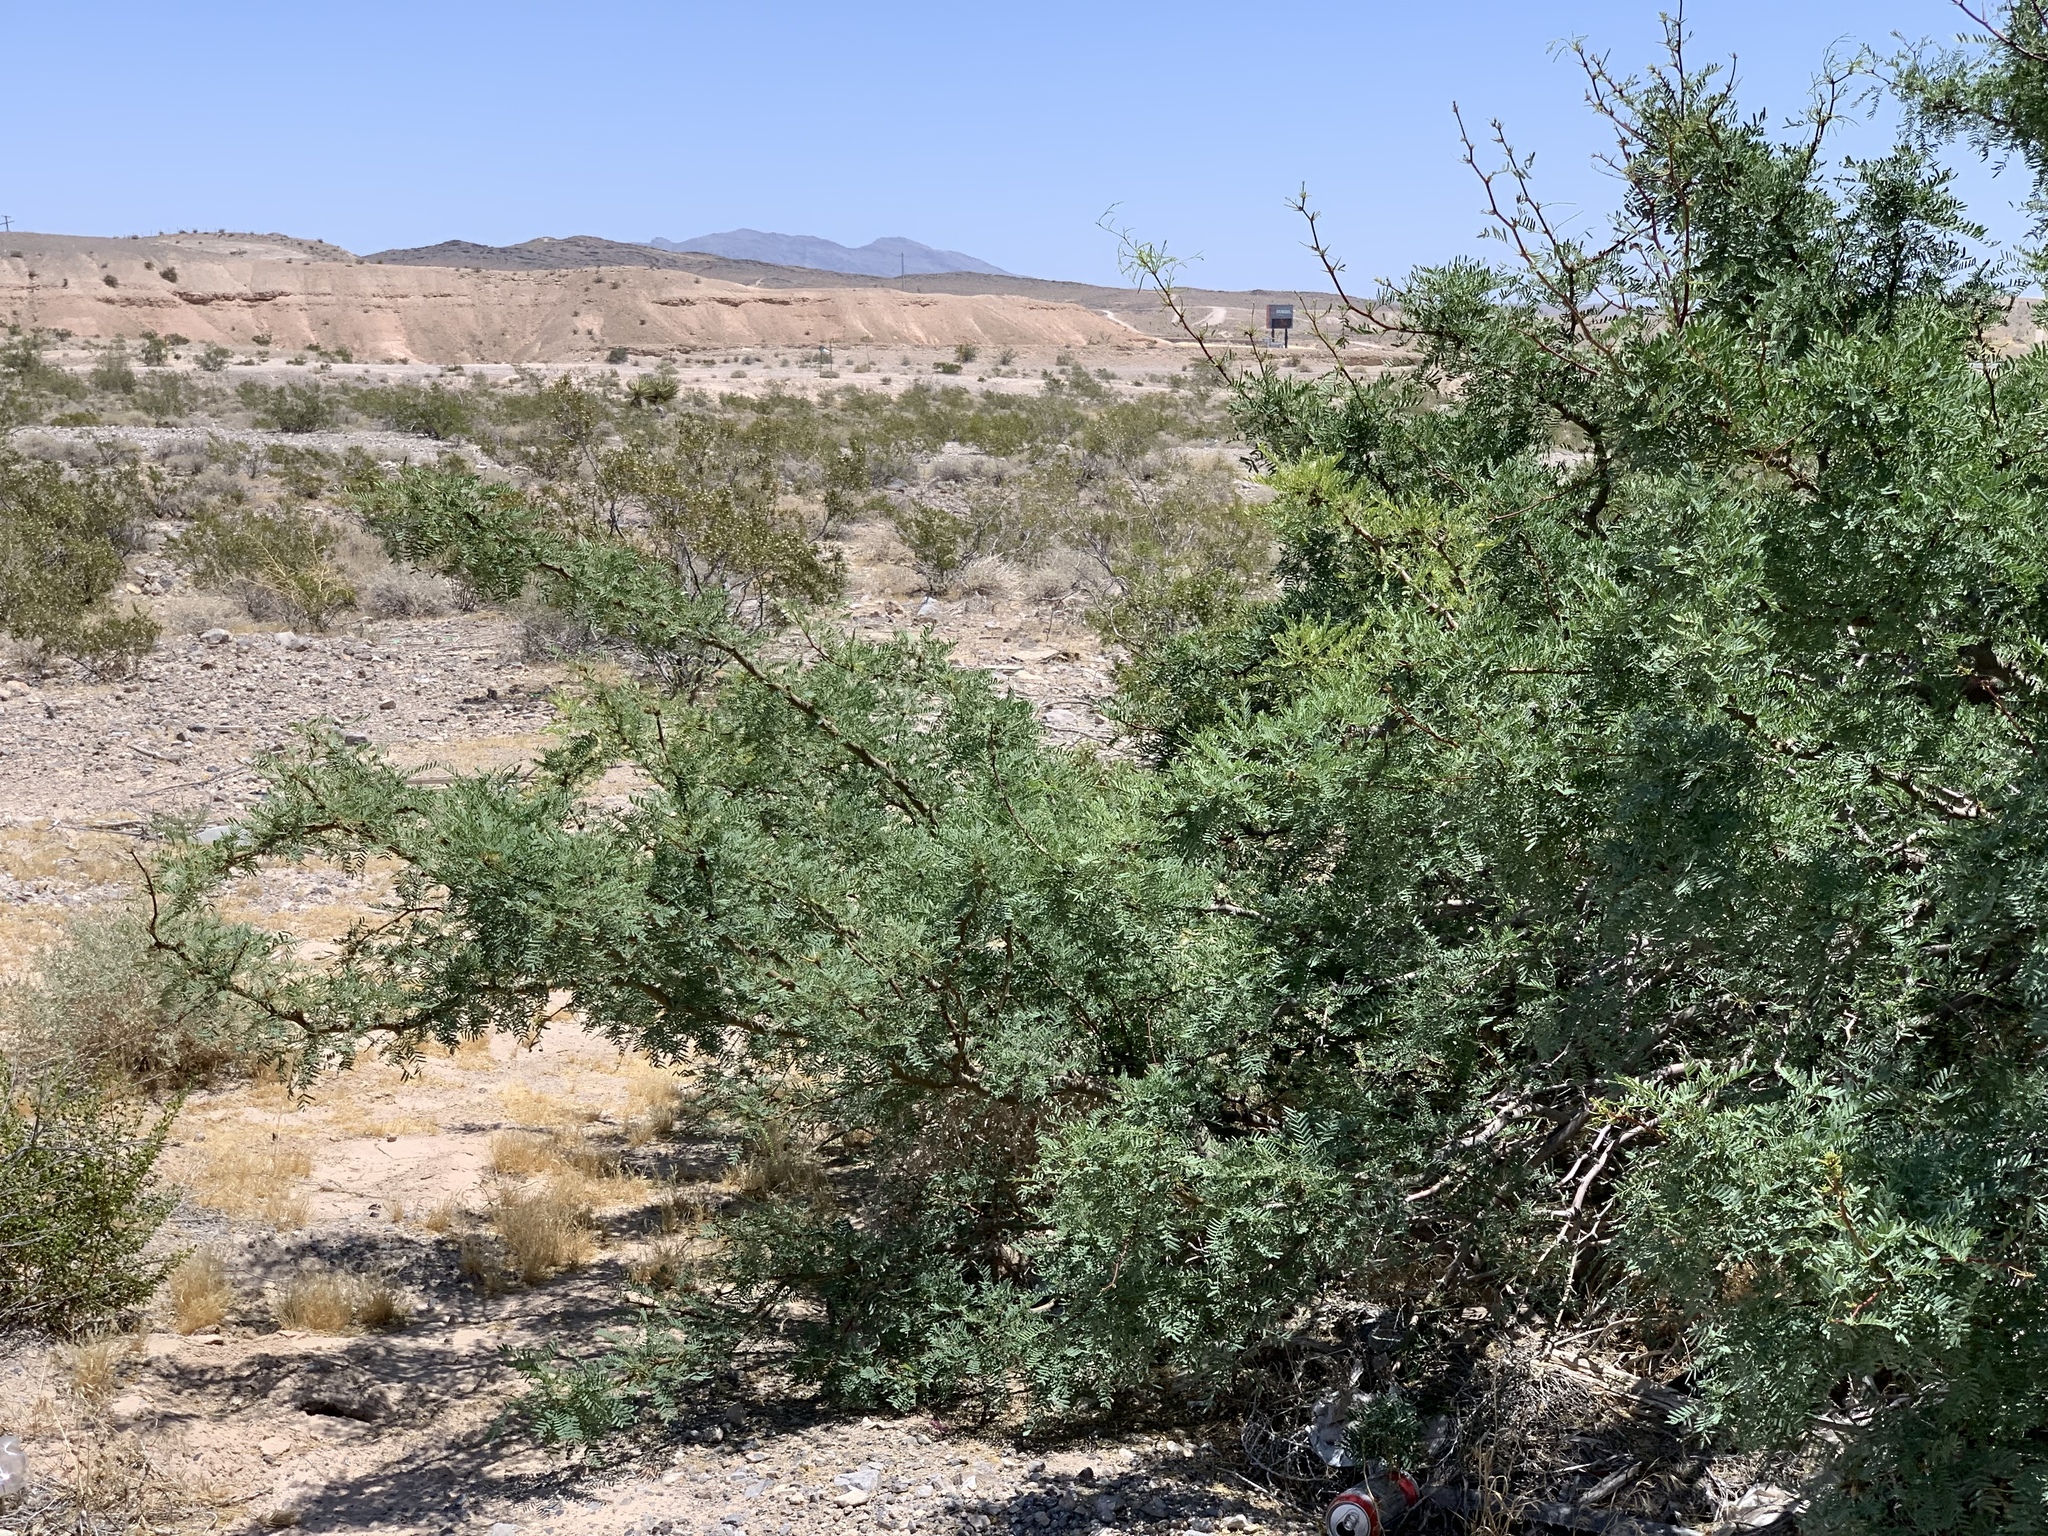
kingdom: Plantae
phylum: Tracheophyta
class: Magnoliopsida
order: Fabales
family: Fabaceae
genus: Prosopis
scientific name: Prosopis pubescens
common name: Screw-bean
